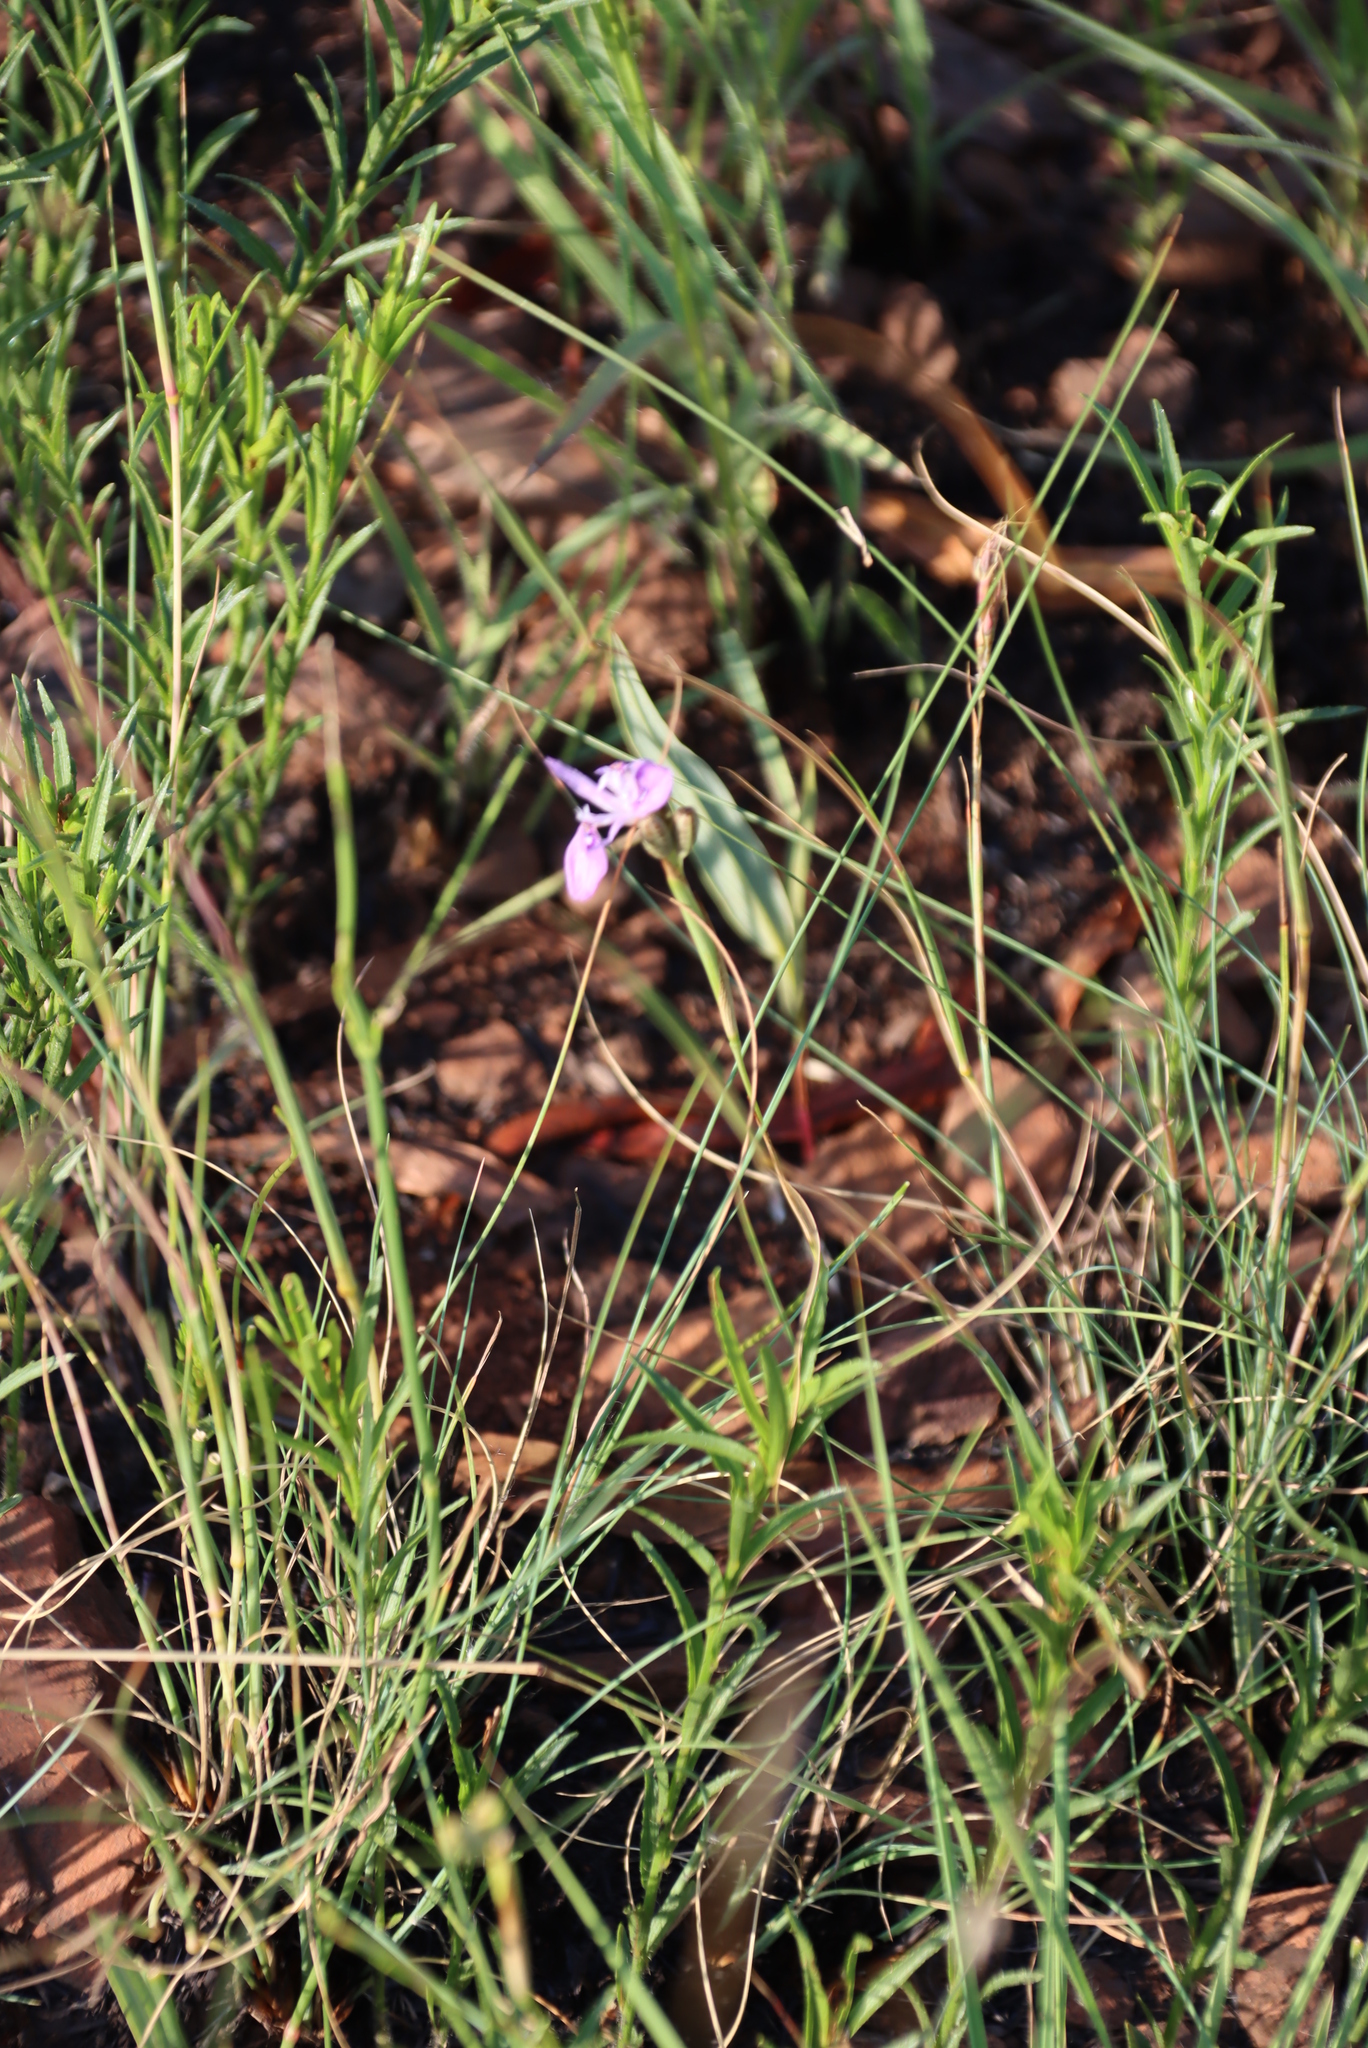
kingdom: Plantae
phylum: Tracheophyta
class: Liliopsida
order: Asparagales
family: Iridaceae
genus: Moraea
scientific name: Moraea stricta
